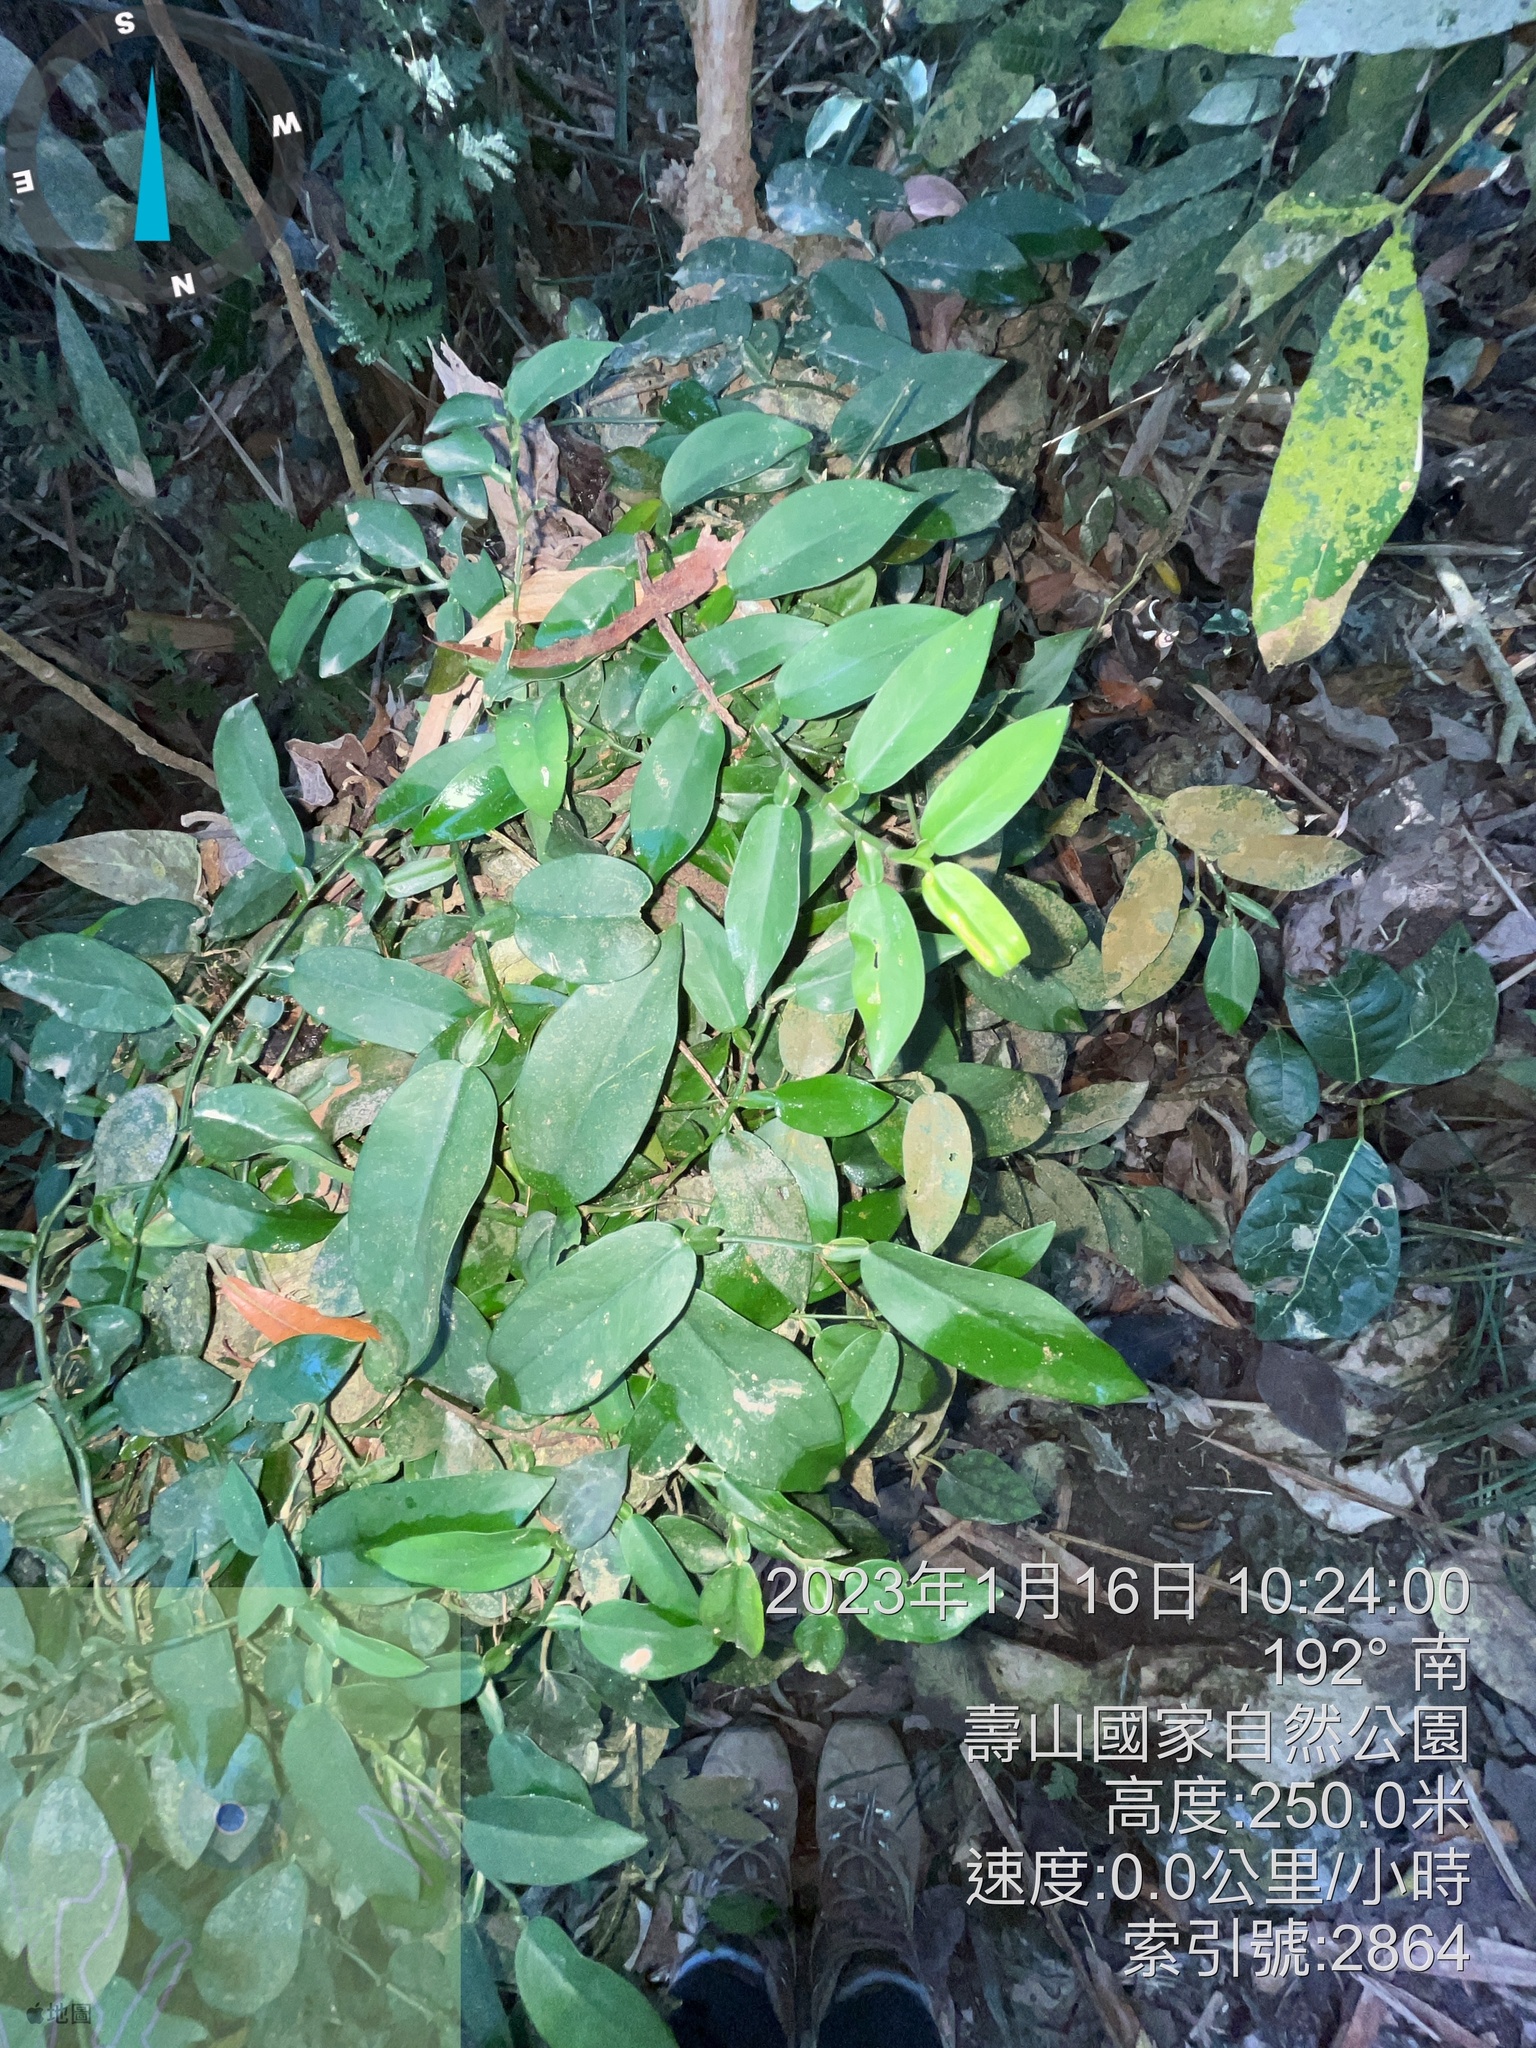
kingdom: Plantae
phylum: Tracheophyta
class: Liliopsida
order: Alismatales
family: Araceae
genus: Pothos
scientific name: Pothos chinensis
